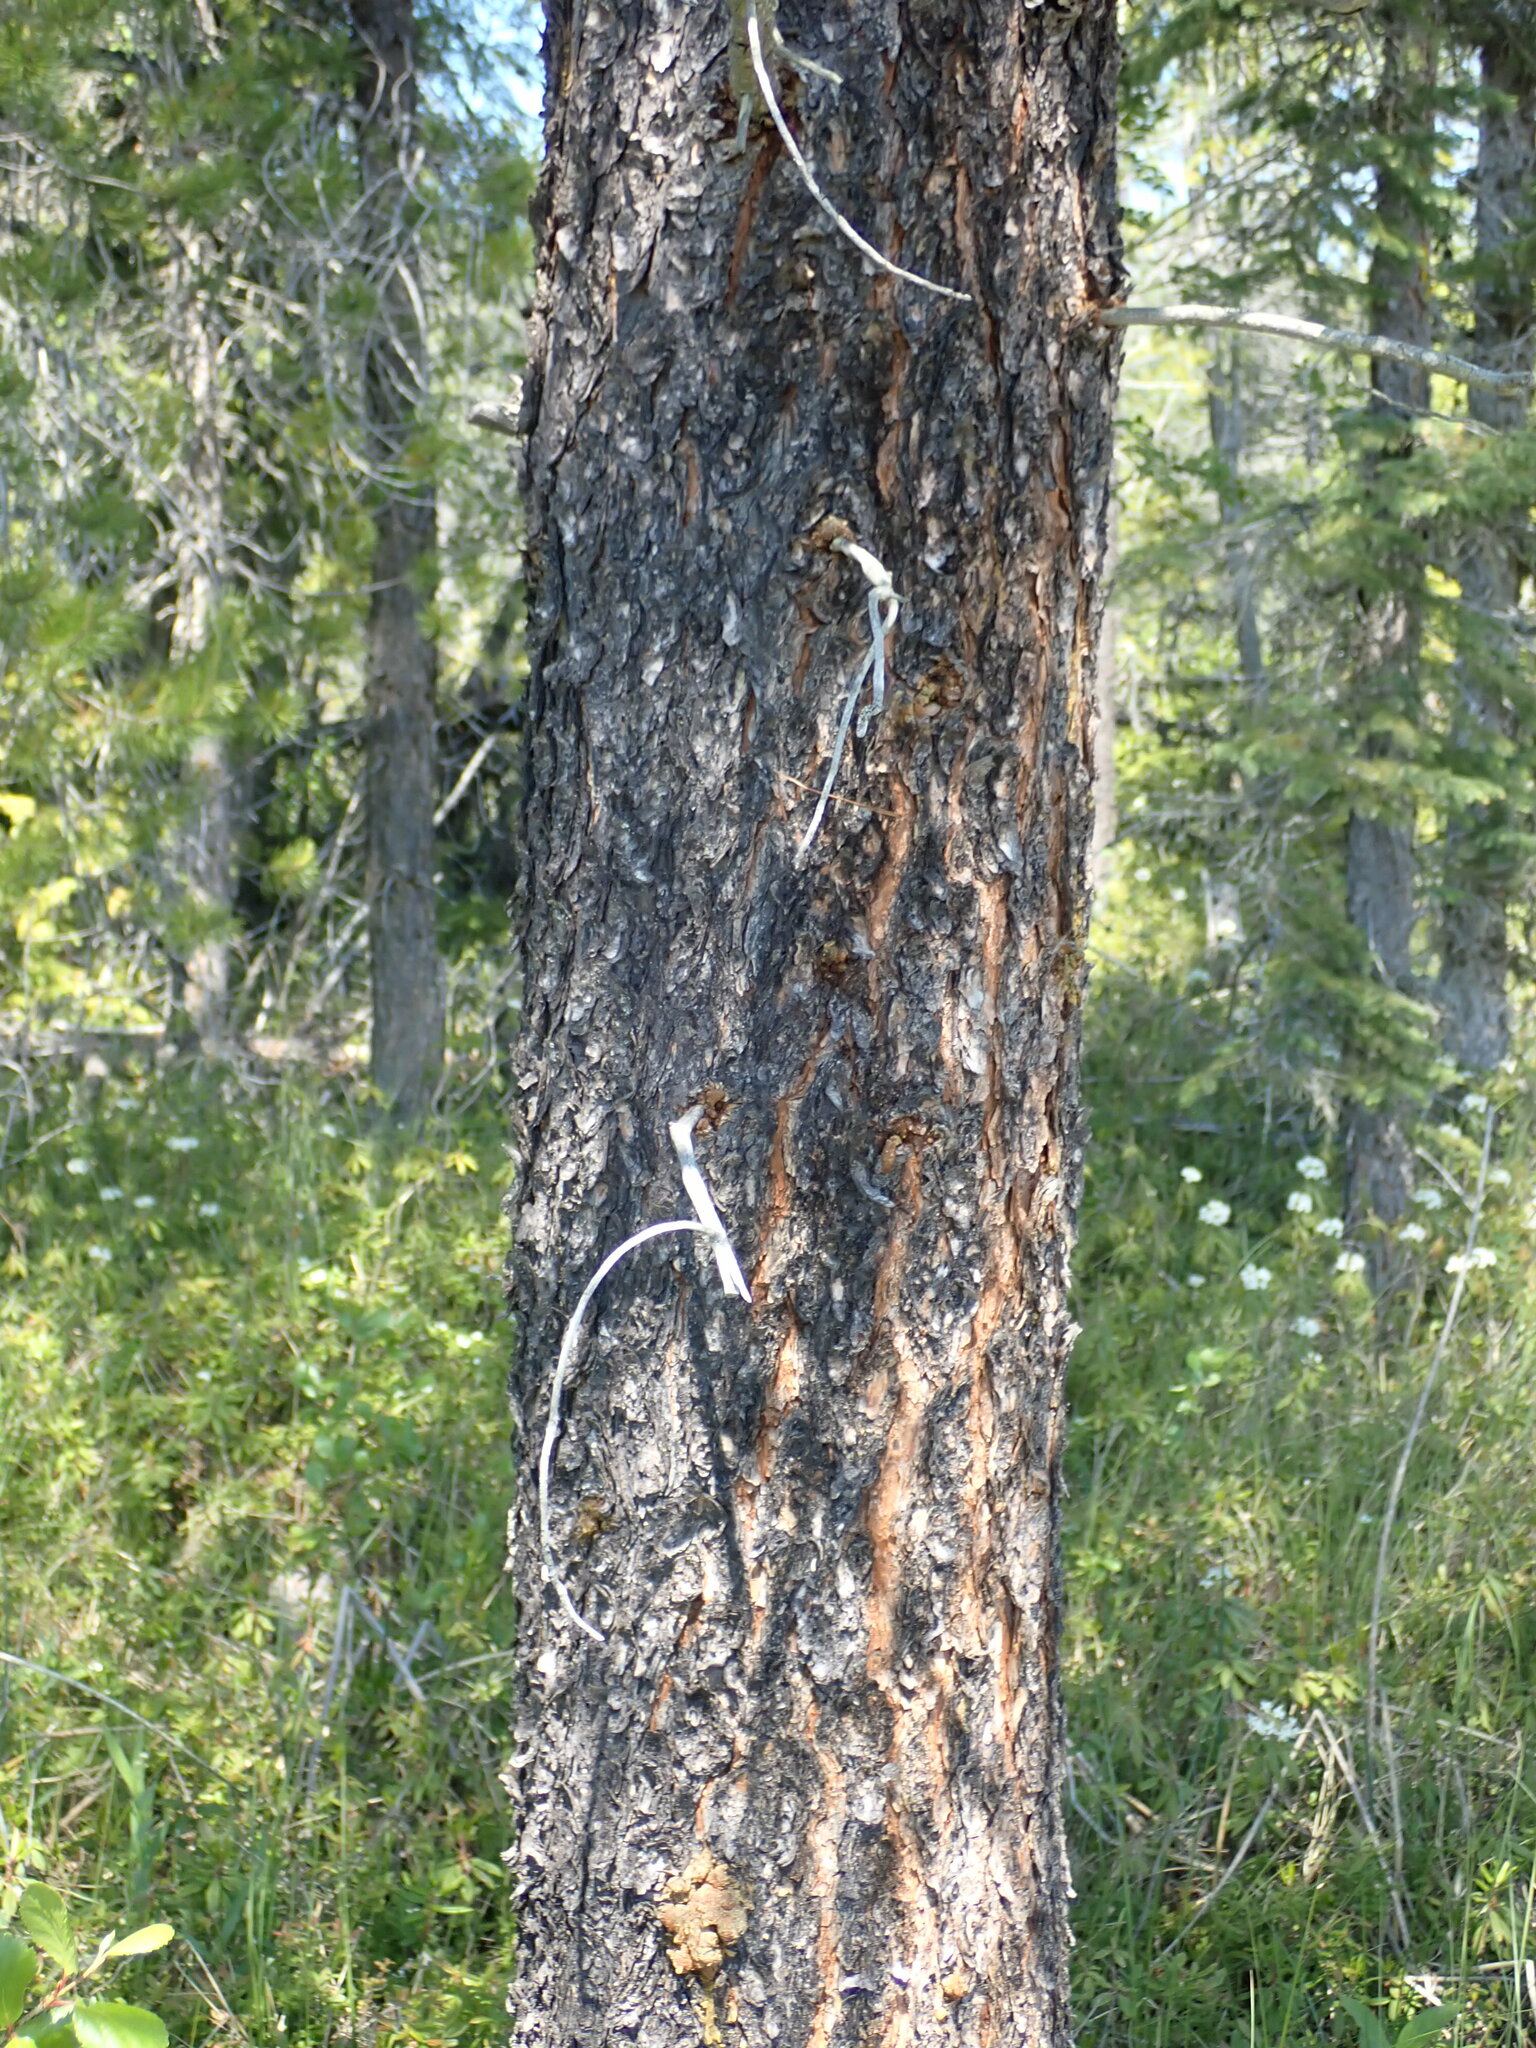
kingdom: Plantae
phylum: Tracheophyta
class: Pinopsida
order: Pinales
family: Pinaceae
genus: Pinus
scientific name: Pinus contorta
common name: Lodgepole pine
